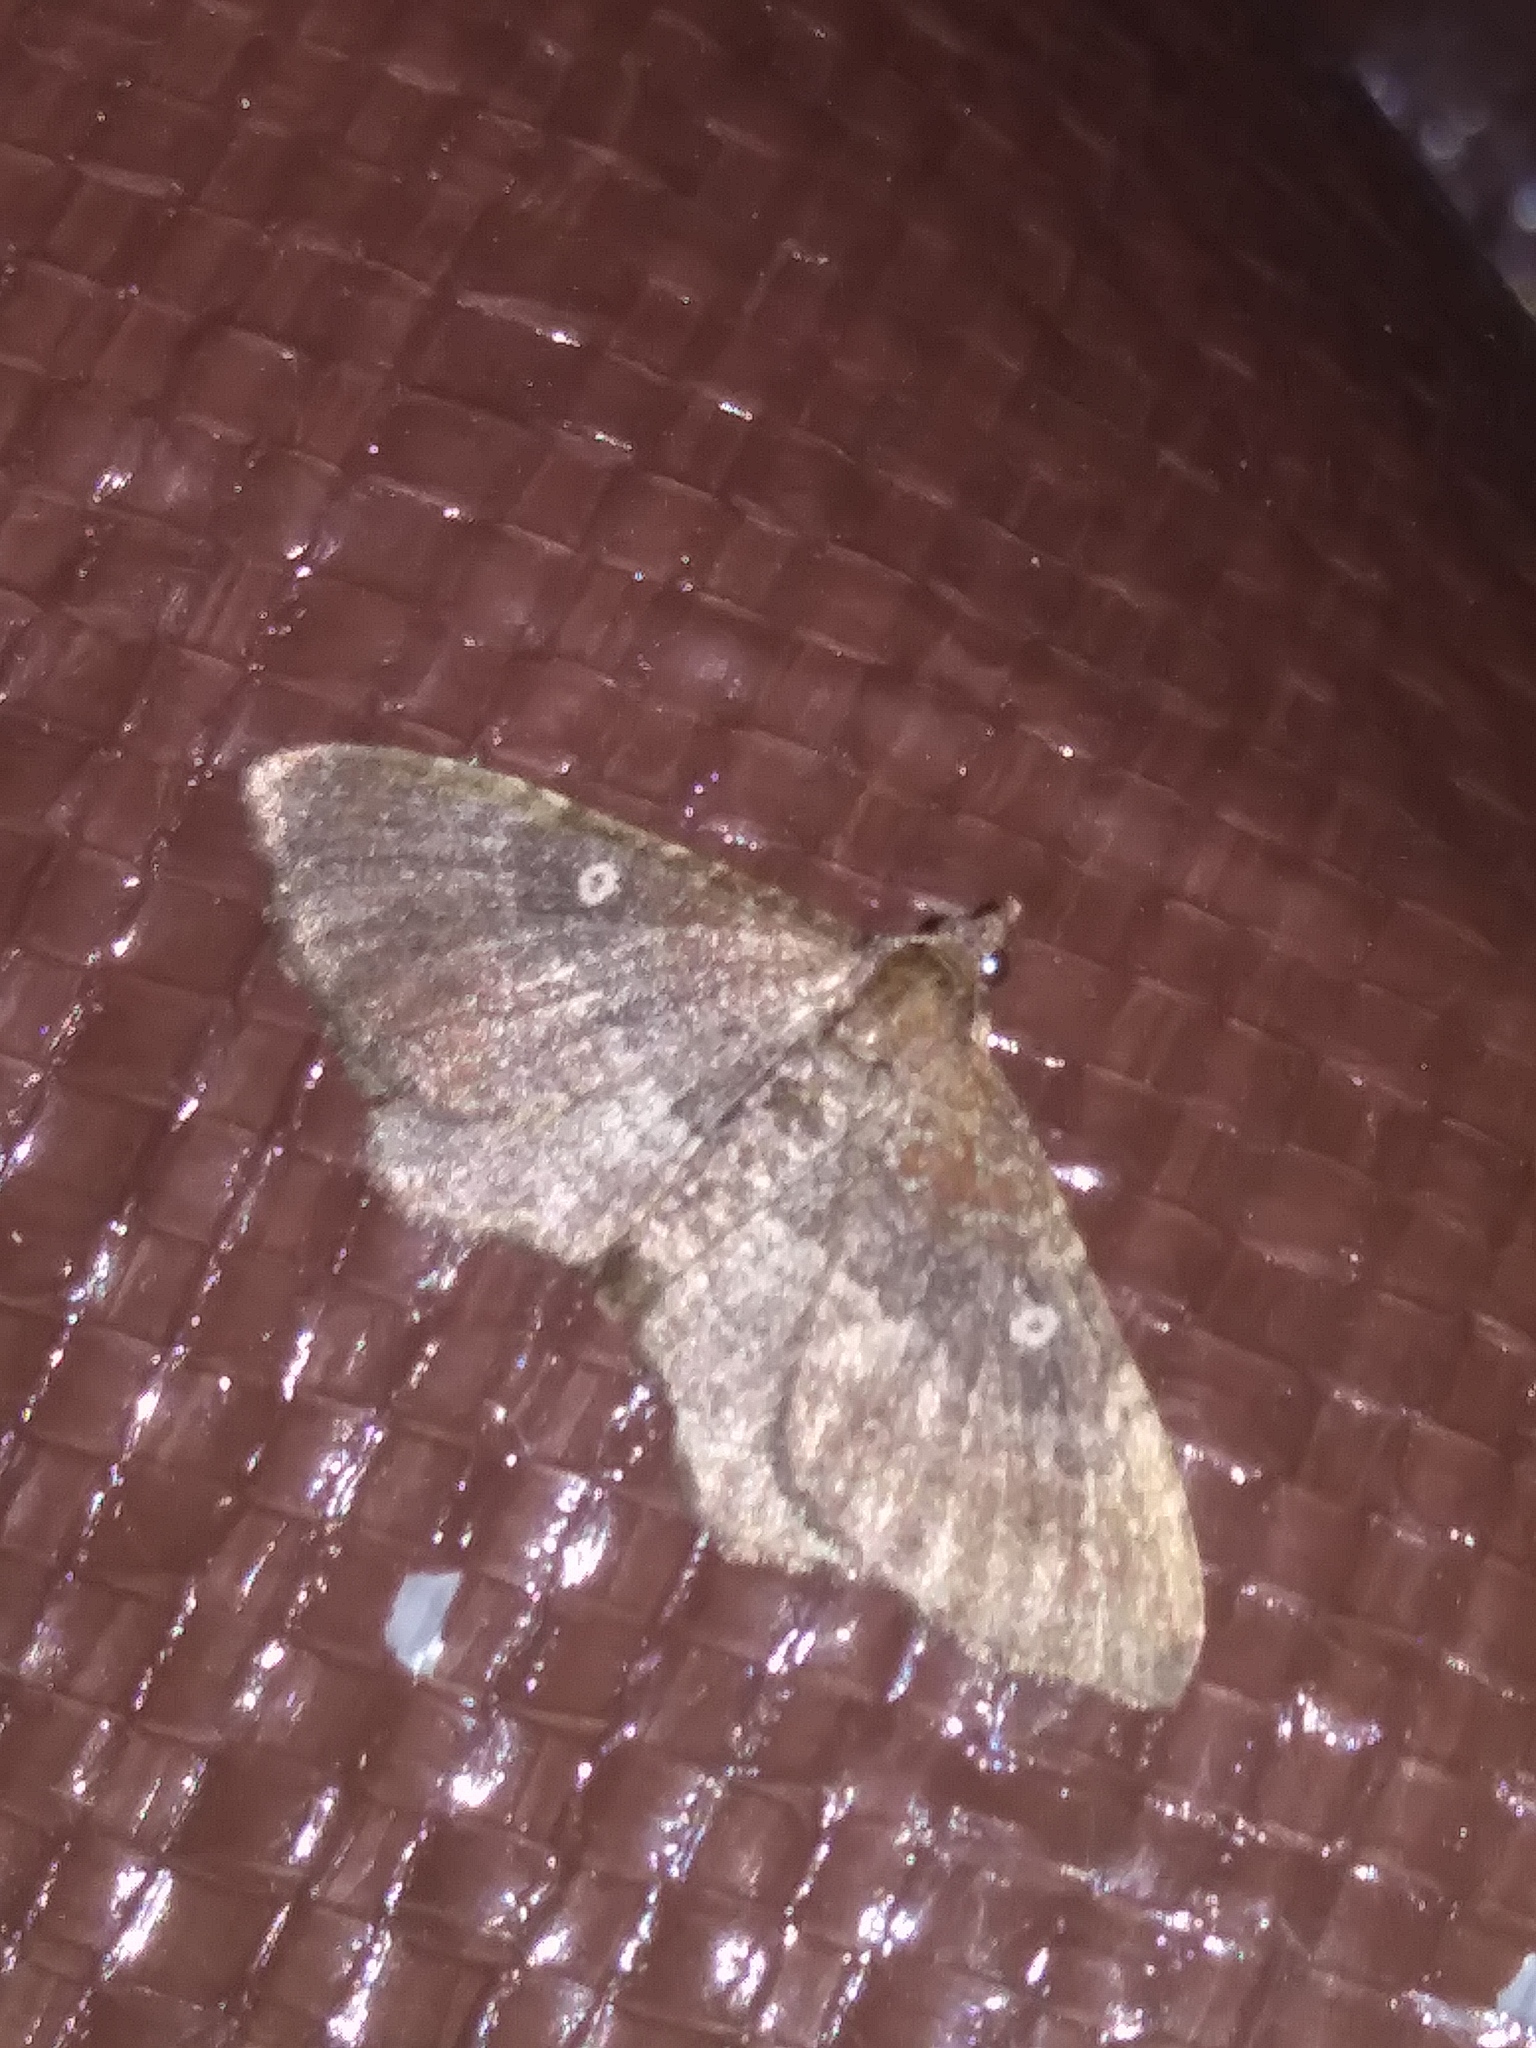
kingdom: Animalia
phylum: Arthropoda
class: Insecta
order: Lepidoptera
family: Geometridae
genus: Orthonama
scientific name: Orthonama obstipata
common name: The gem
